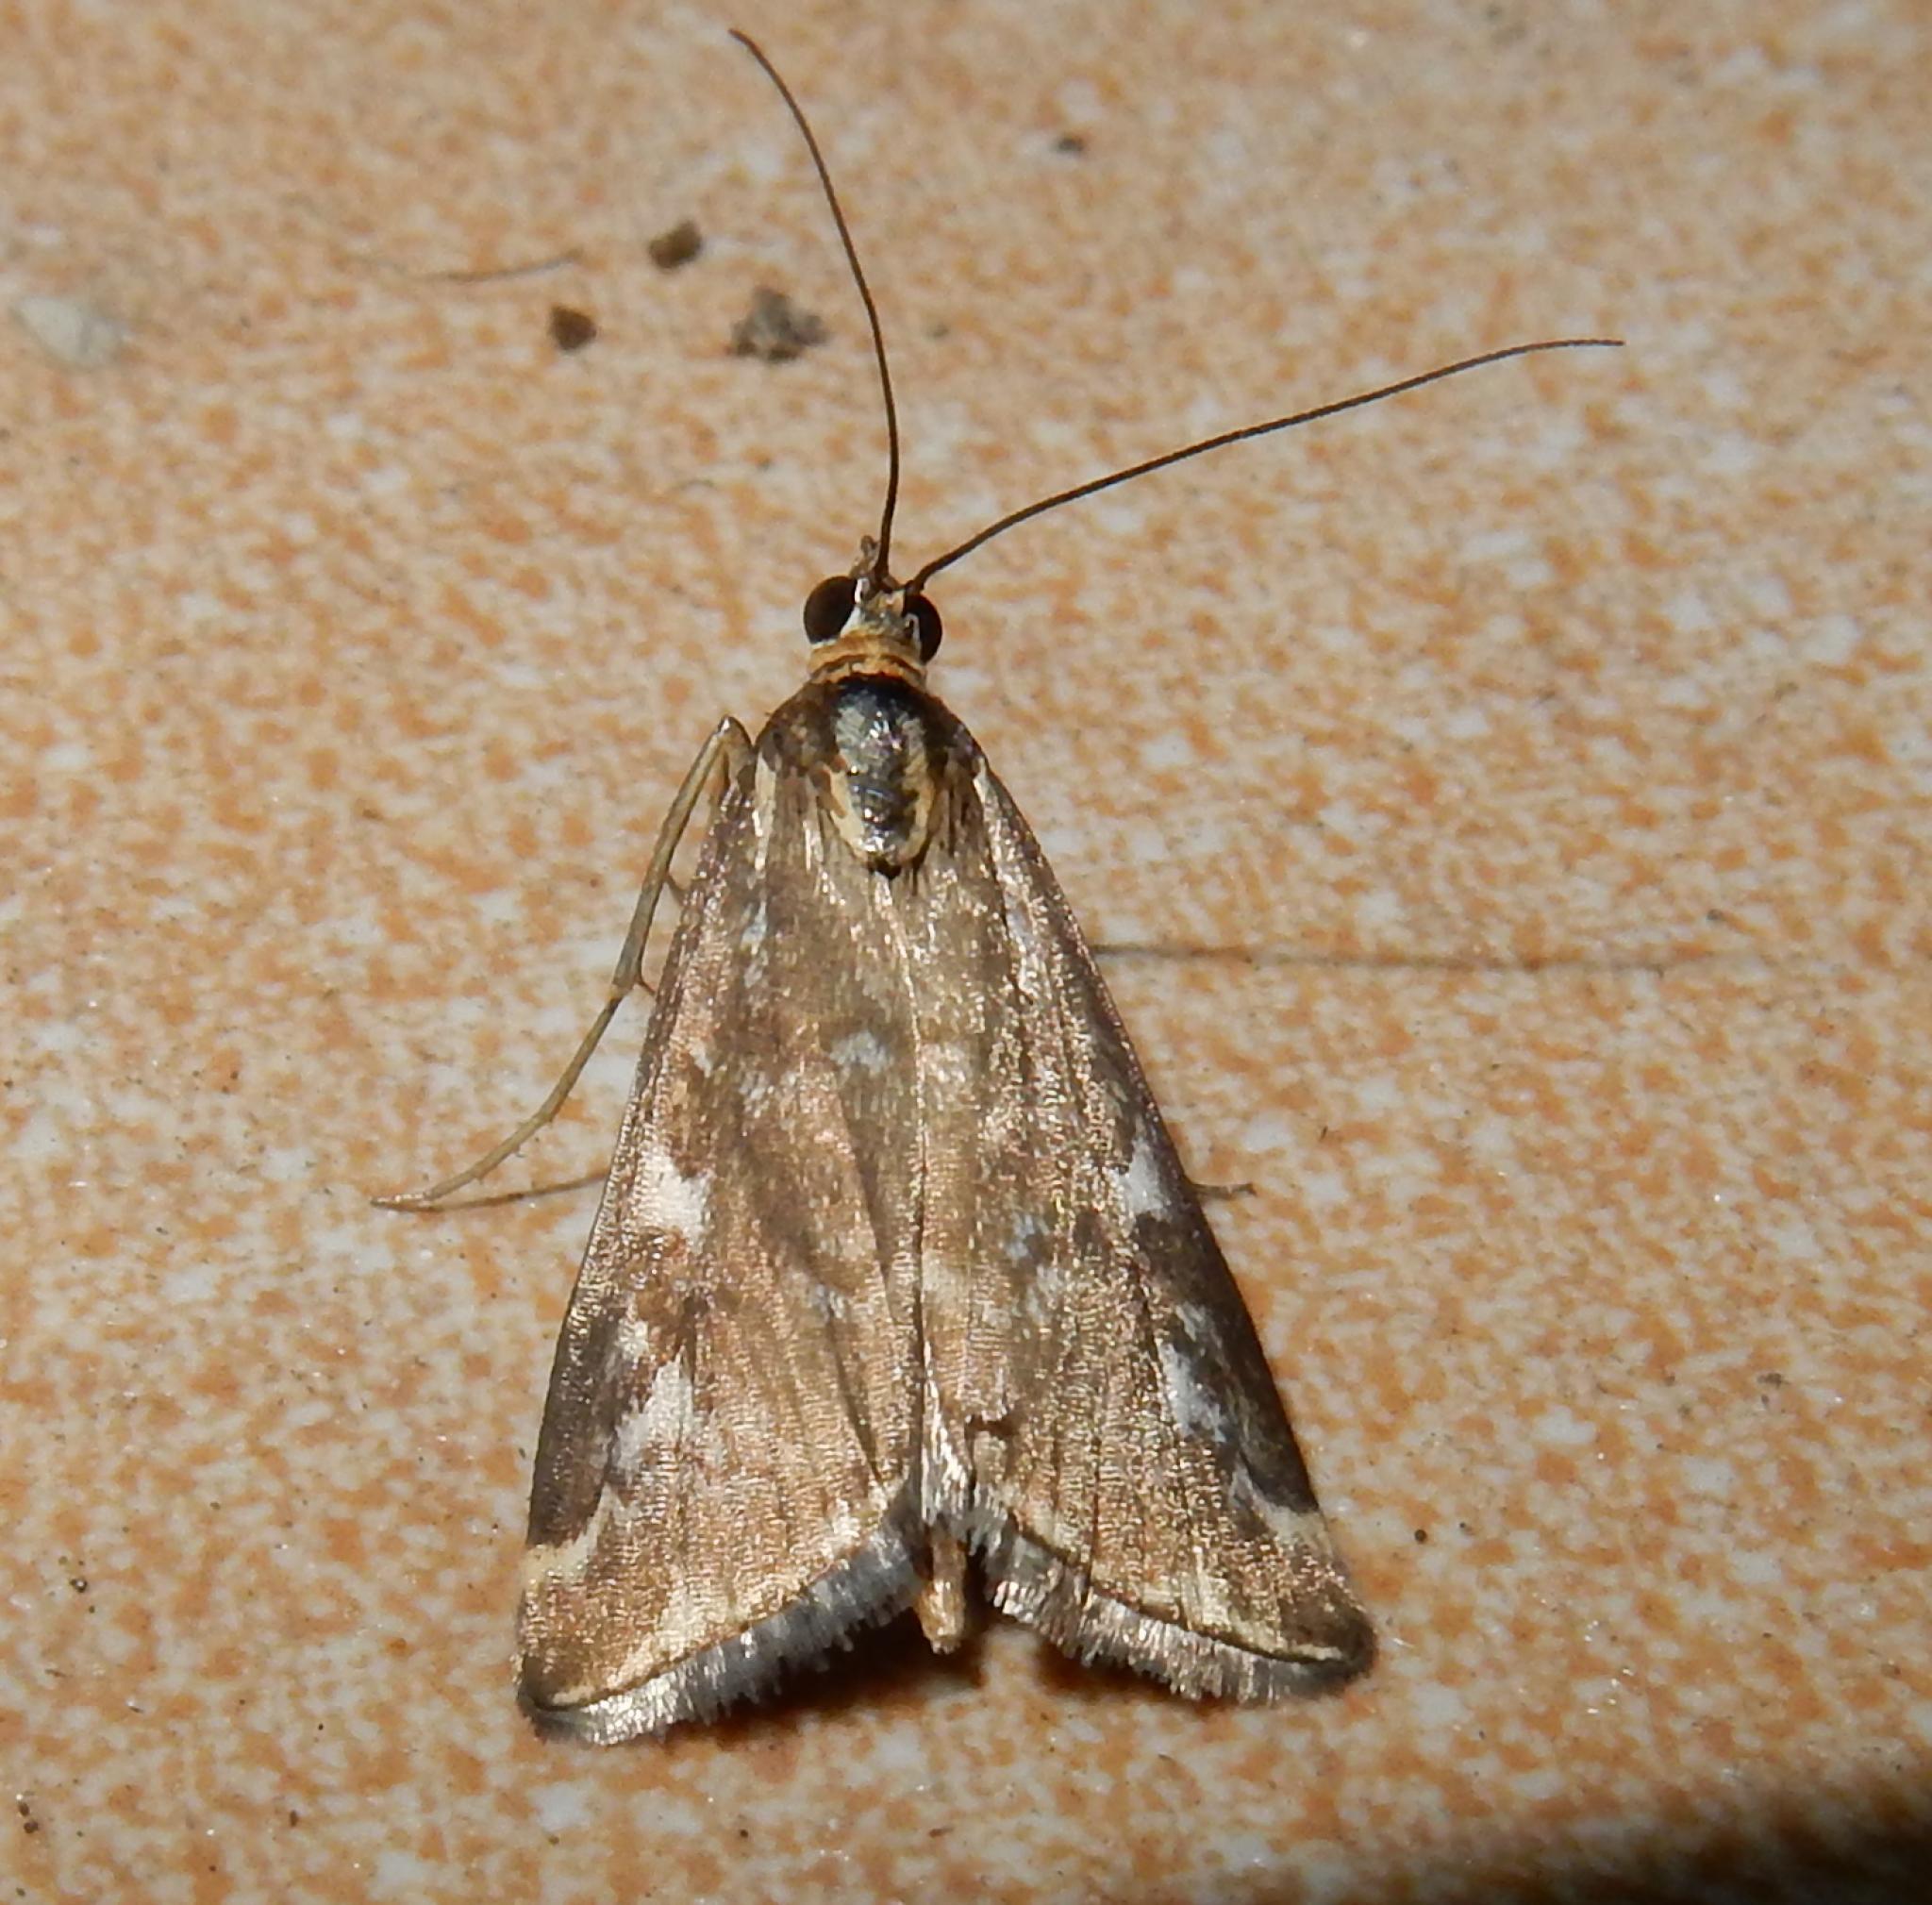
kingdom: Animalia
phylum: Arthropoda
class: Insecta
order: Lepidoptera
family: Crambidae
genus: Loxostege
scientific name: Loxostege frustalis
